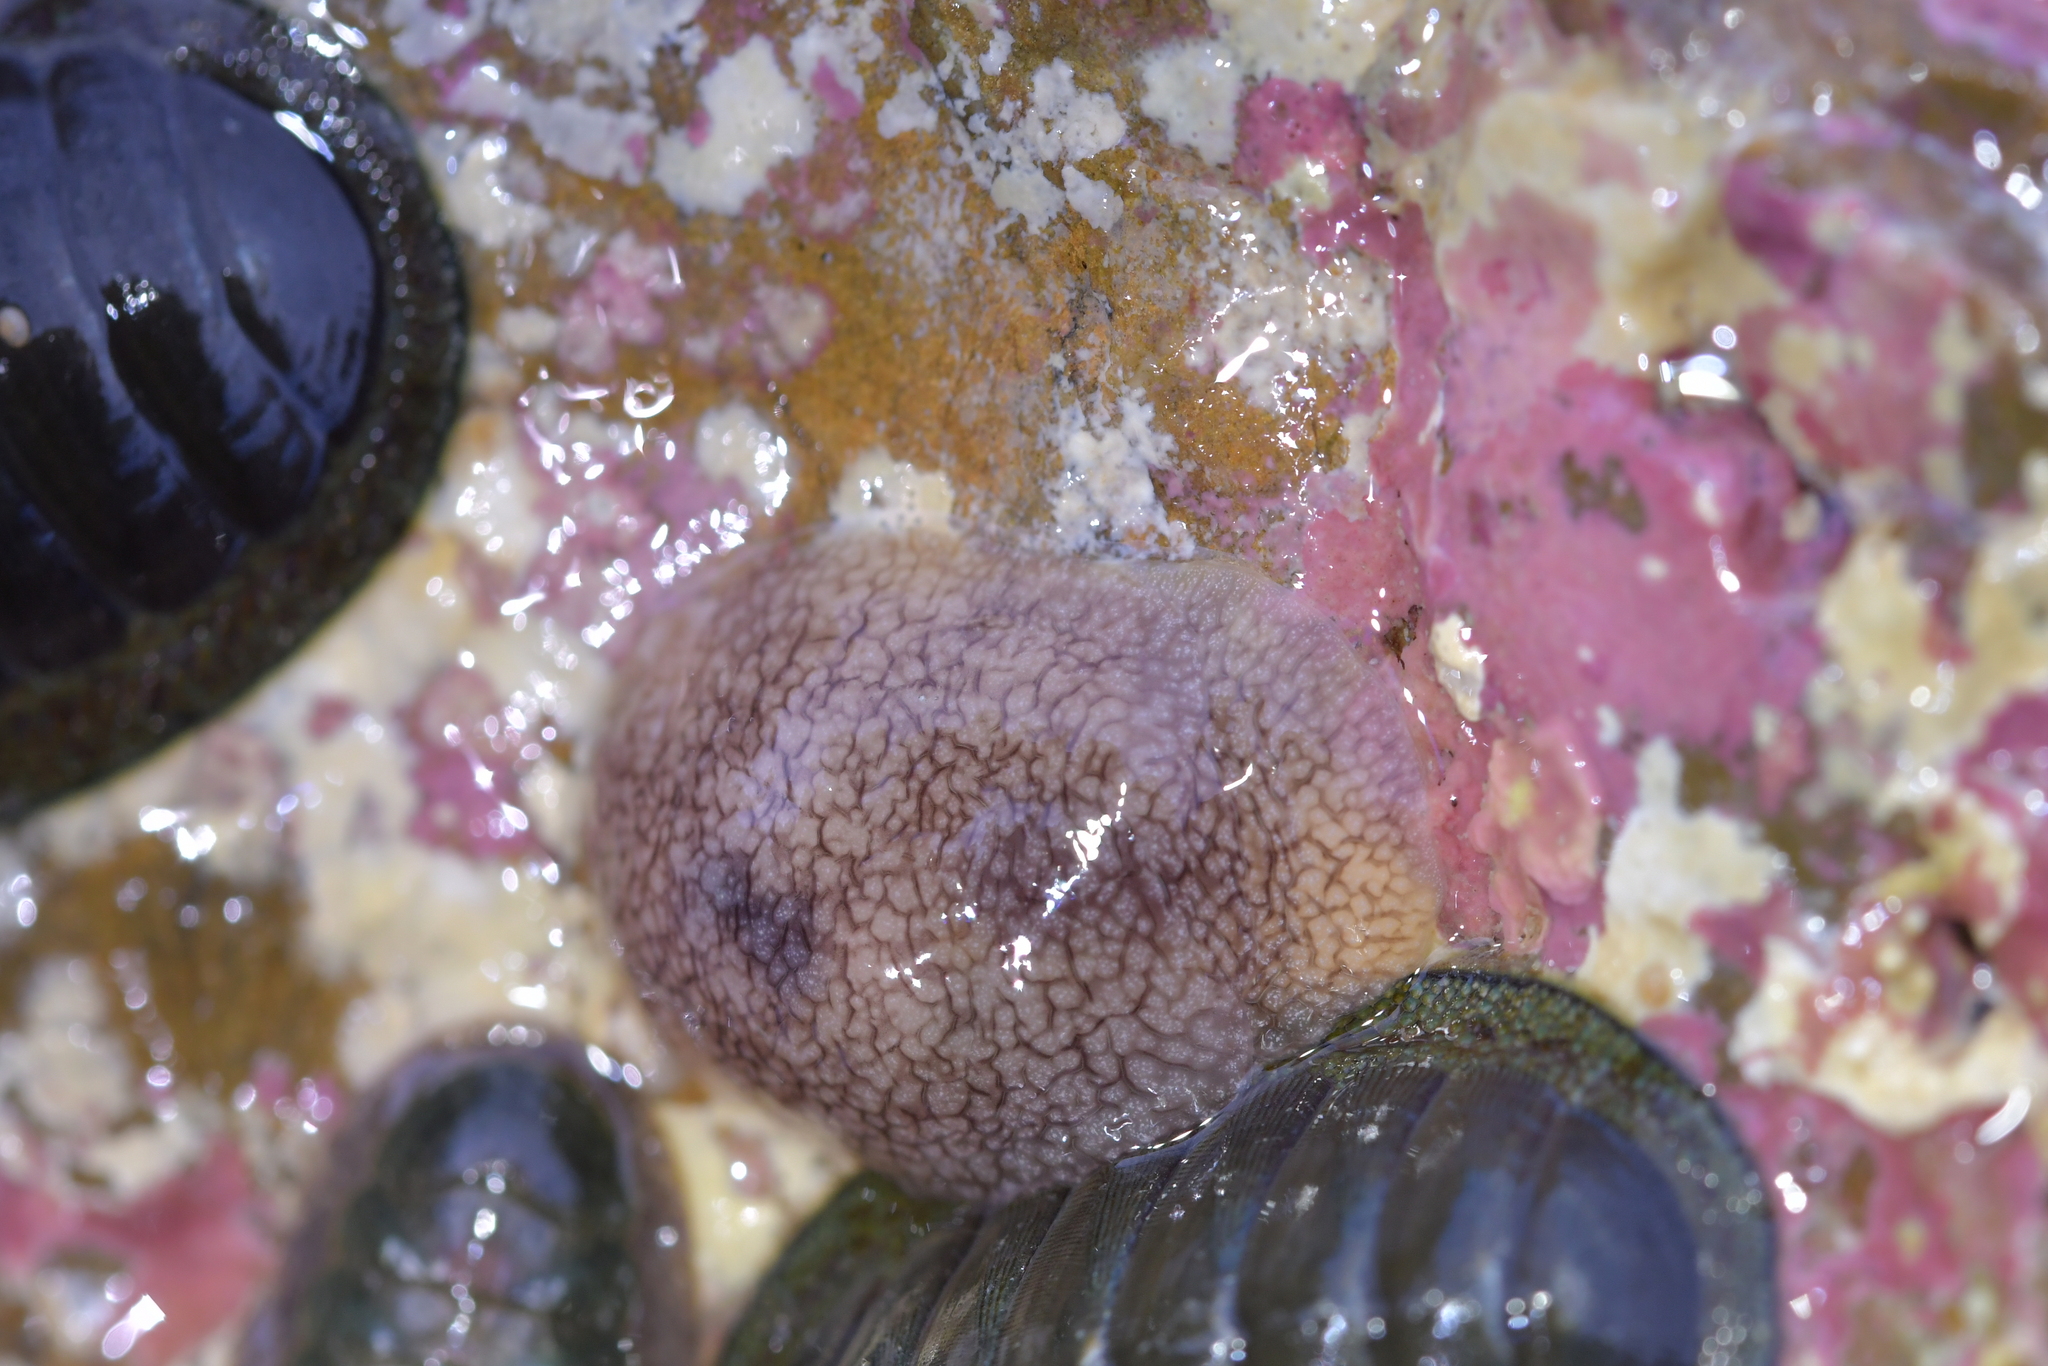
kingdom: Animalia
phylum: Mollusca
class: Gastropoda
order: Pleurobranchida
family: Pleurobranchaeidae
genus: Pleurobranchaea
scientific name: Pleurobranchaea maculata
